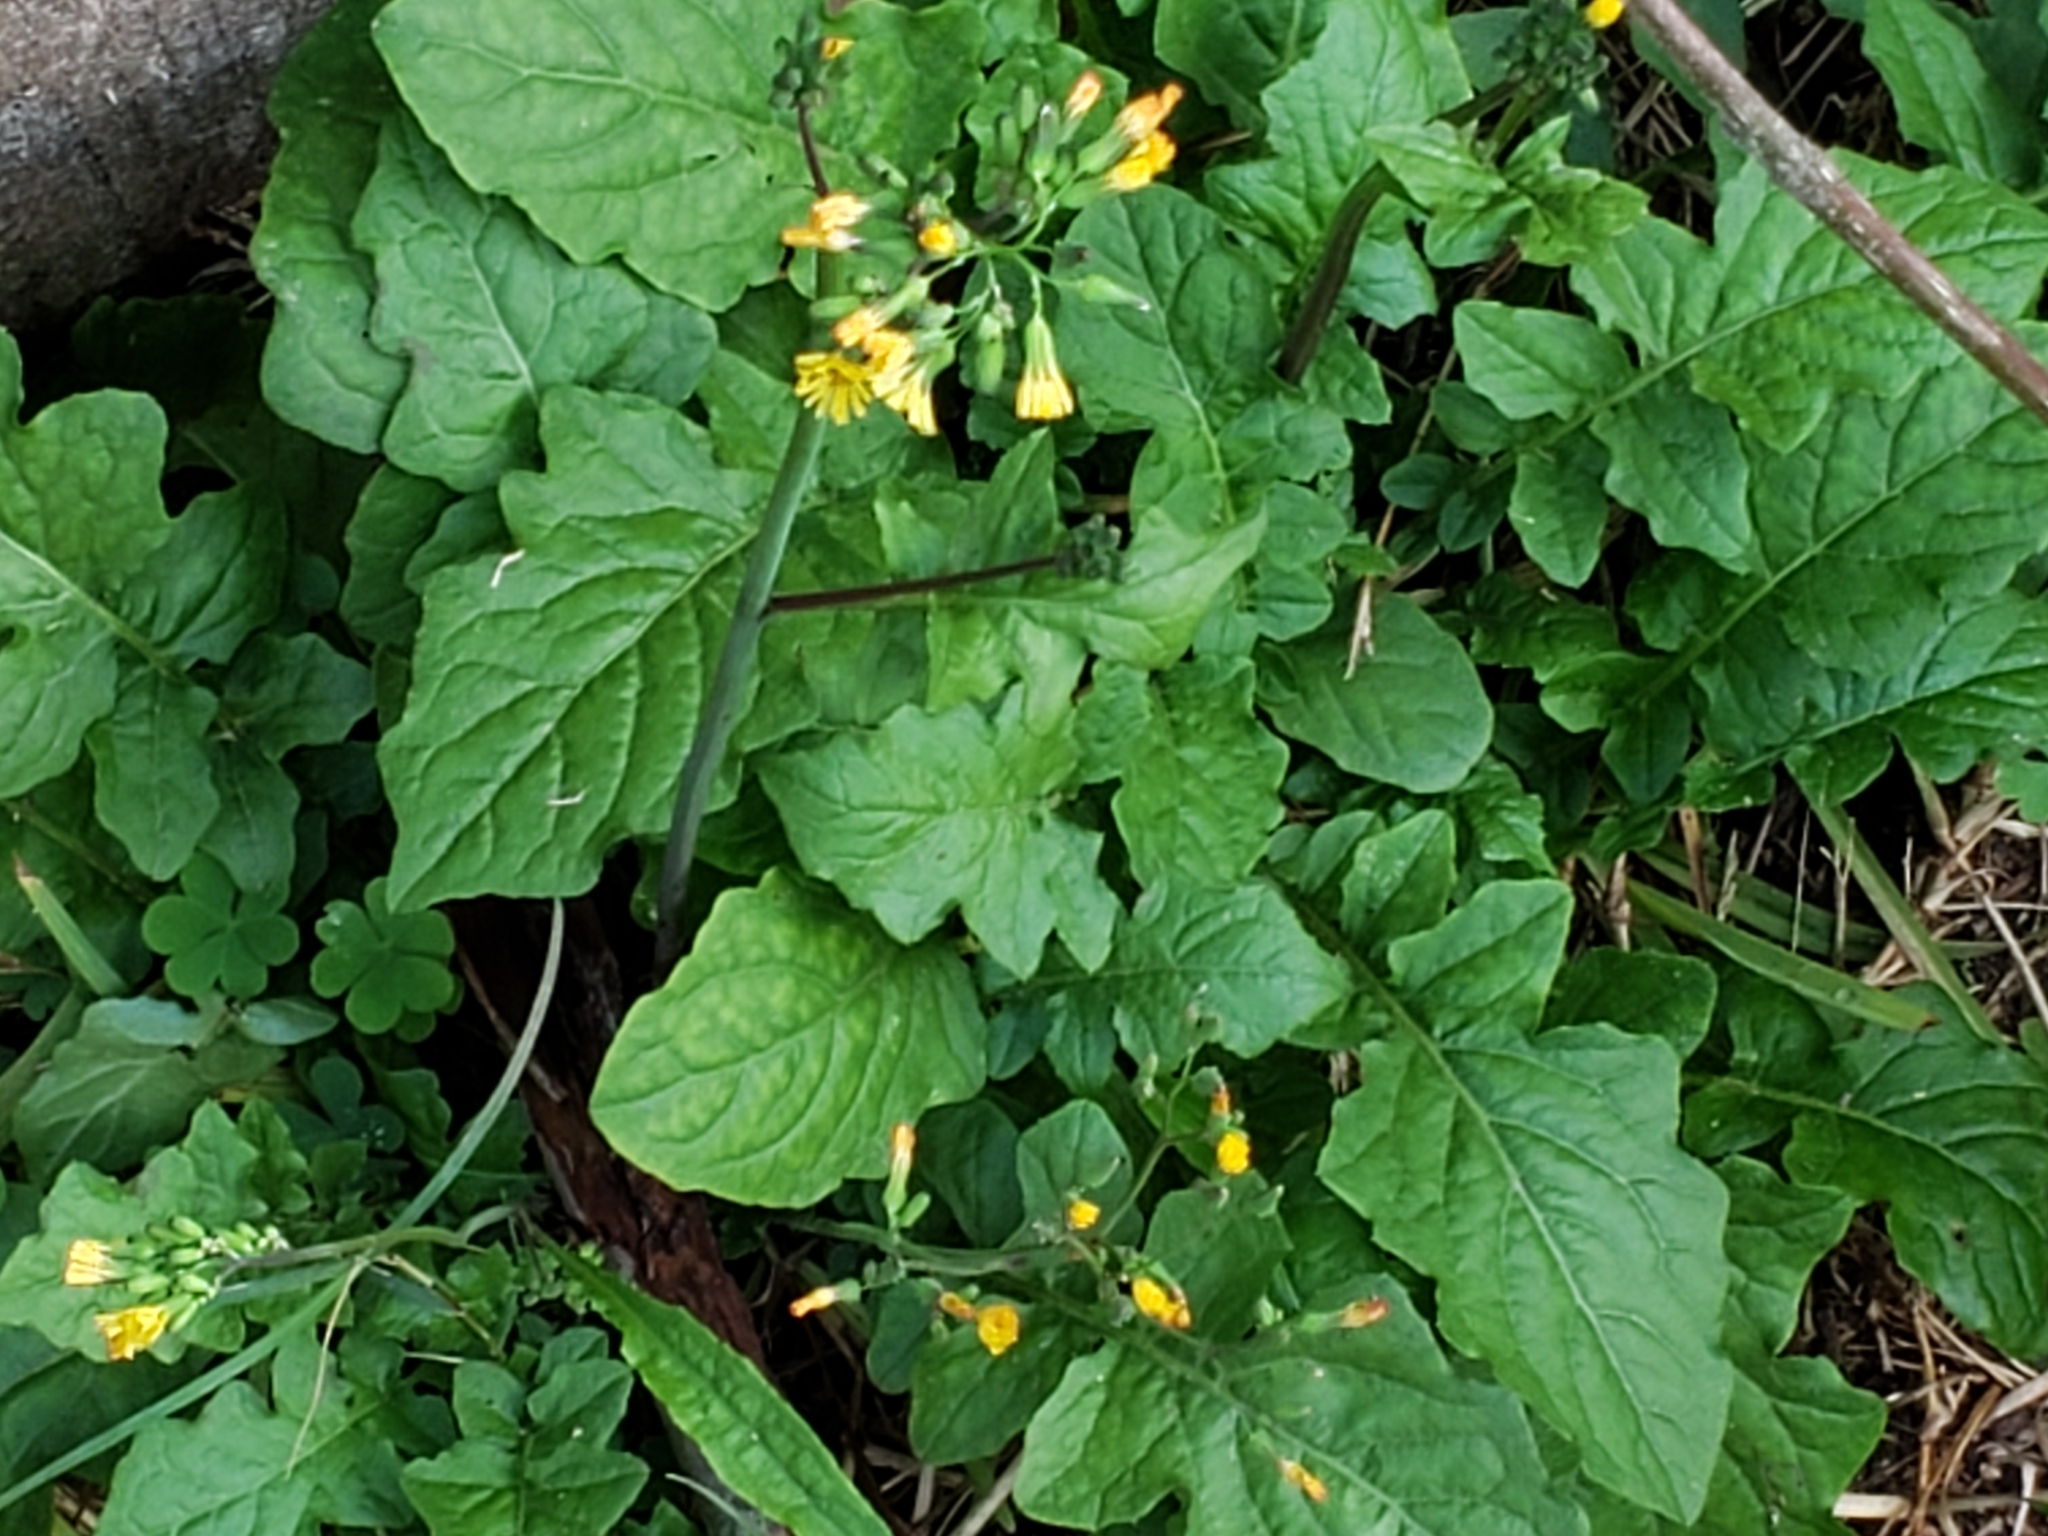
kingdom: Plantae
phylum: Tracheophyta
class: Magnoliopsida
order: Asterales
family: Asteraceae
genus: Youngia
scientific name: Youngia japonica
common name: Oriental false hawksbeard
